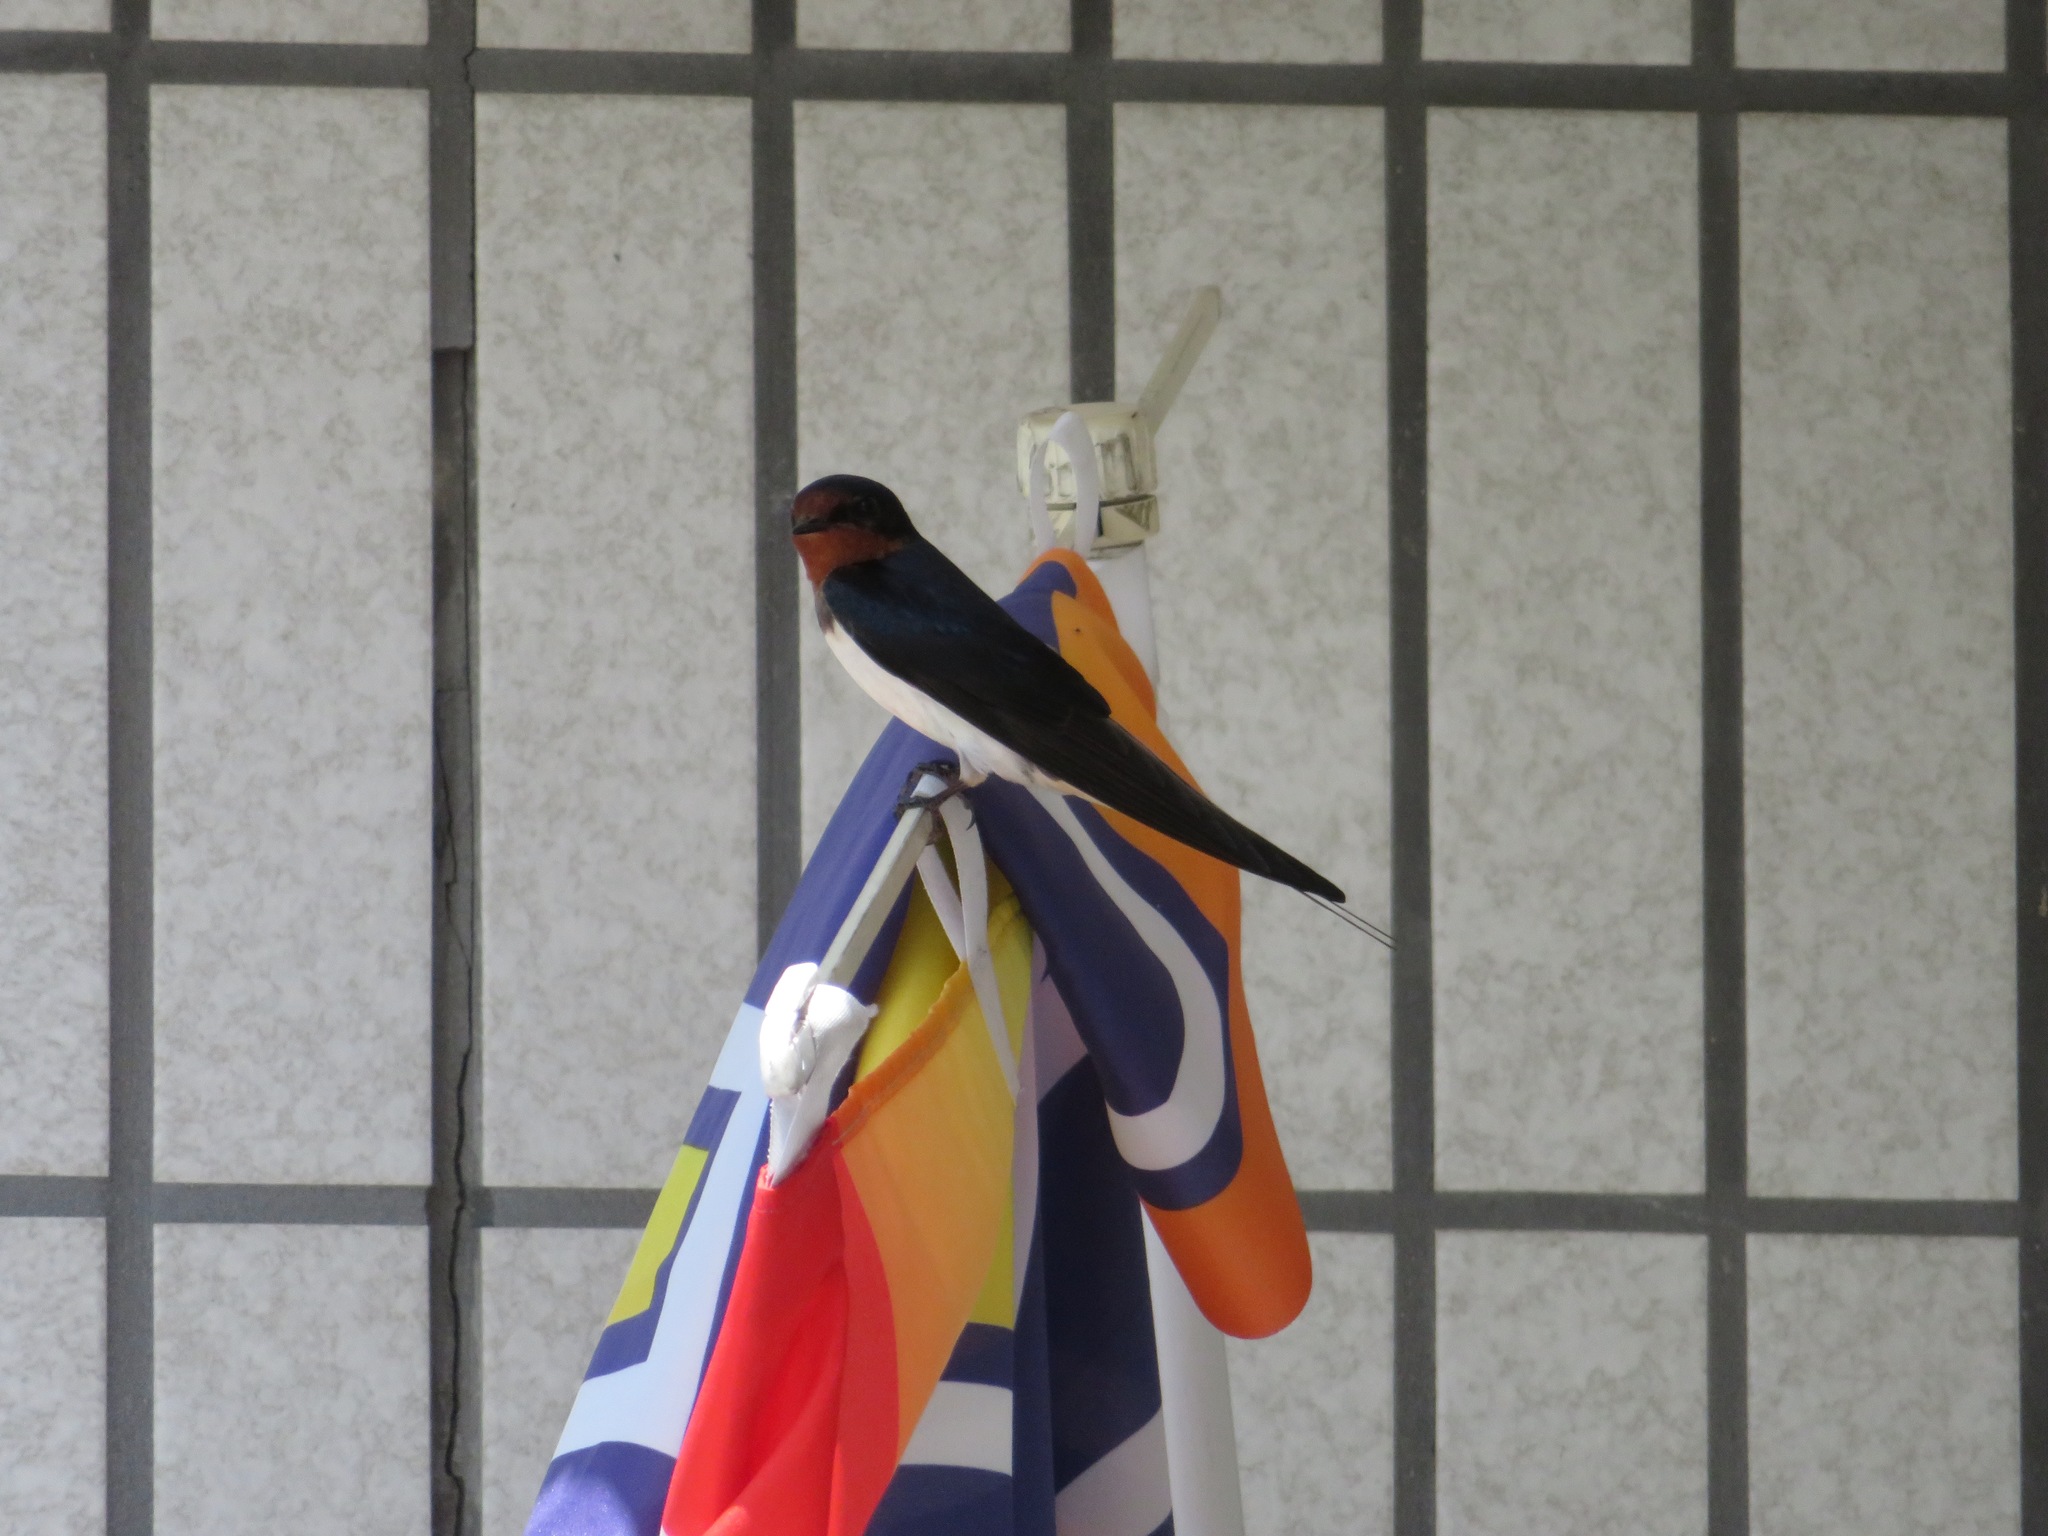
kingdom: Animalia
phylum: Chordata
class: Aves
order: Passeriformes
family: Hirundinidae
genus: Hirundo
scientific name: Hirundo rustica
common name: Barn swallow
